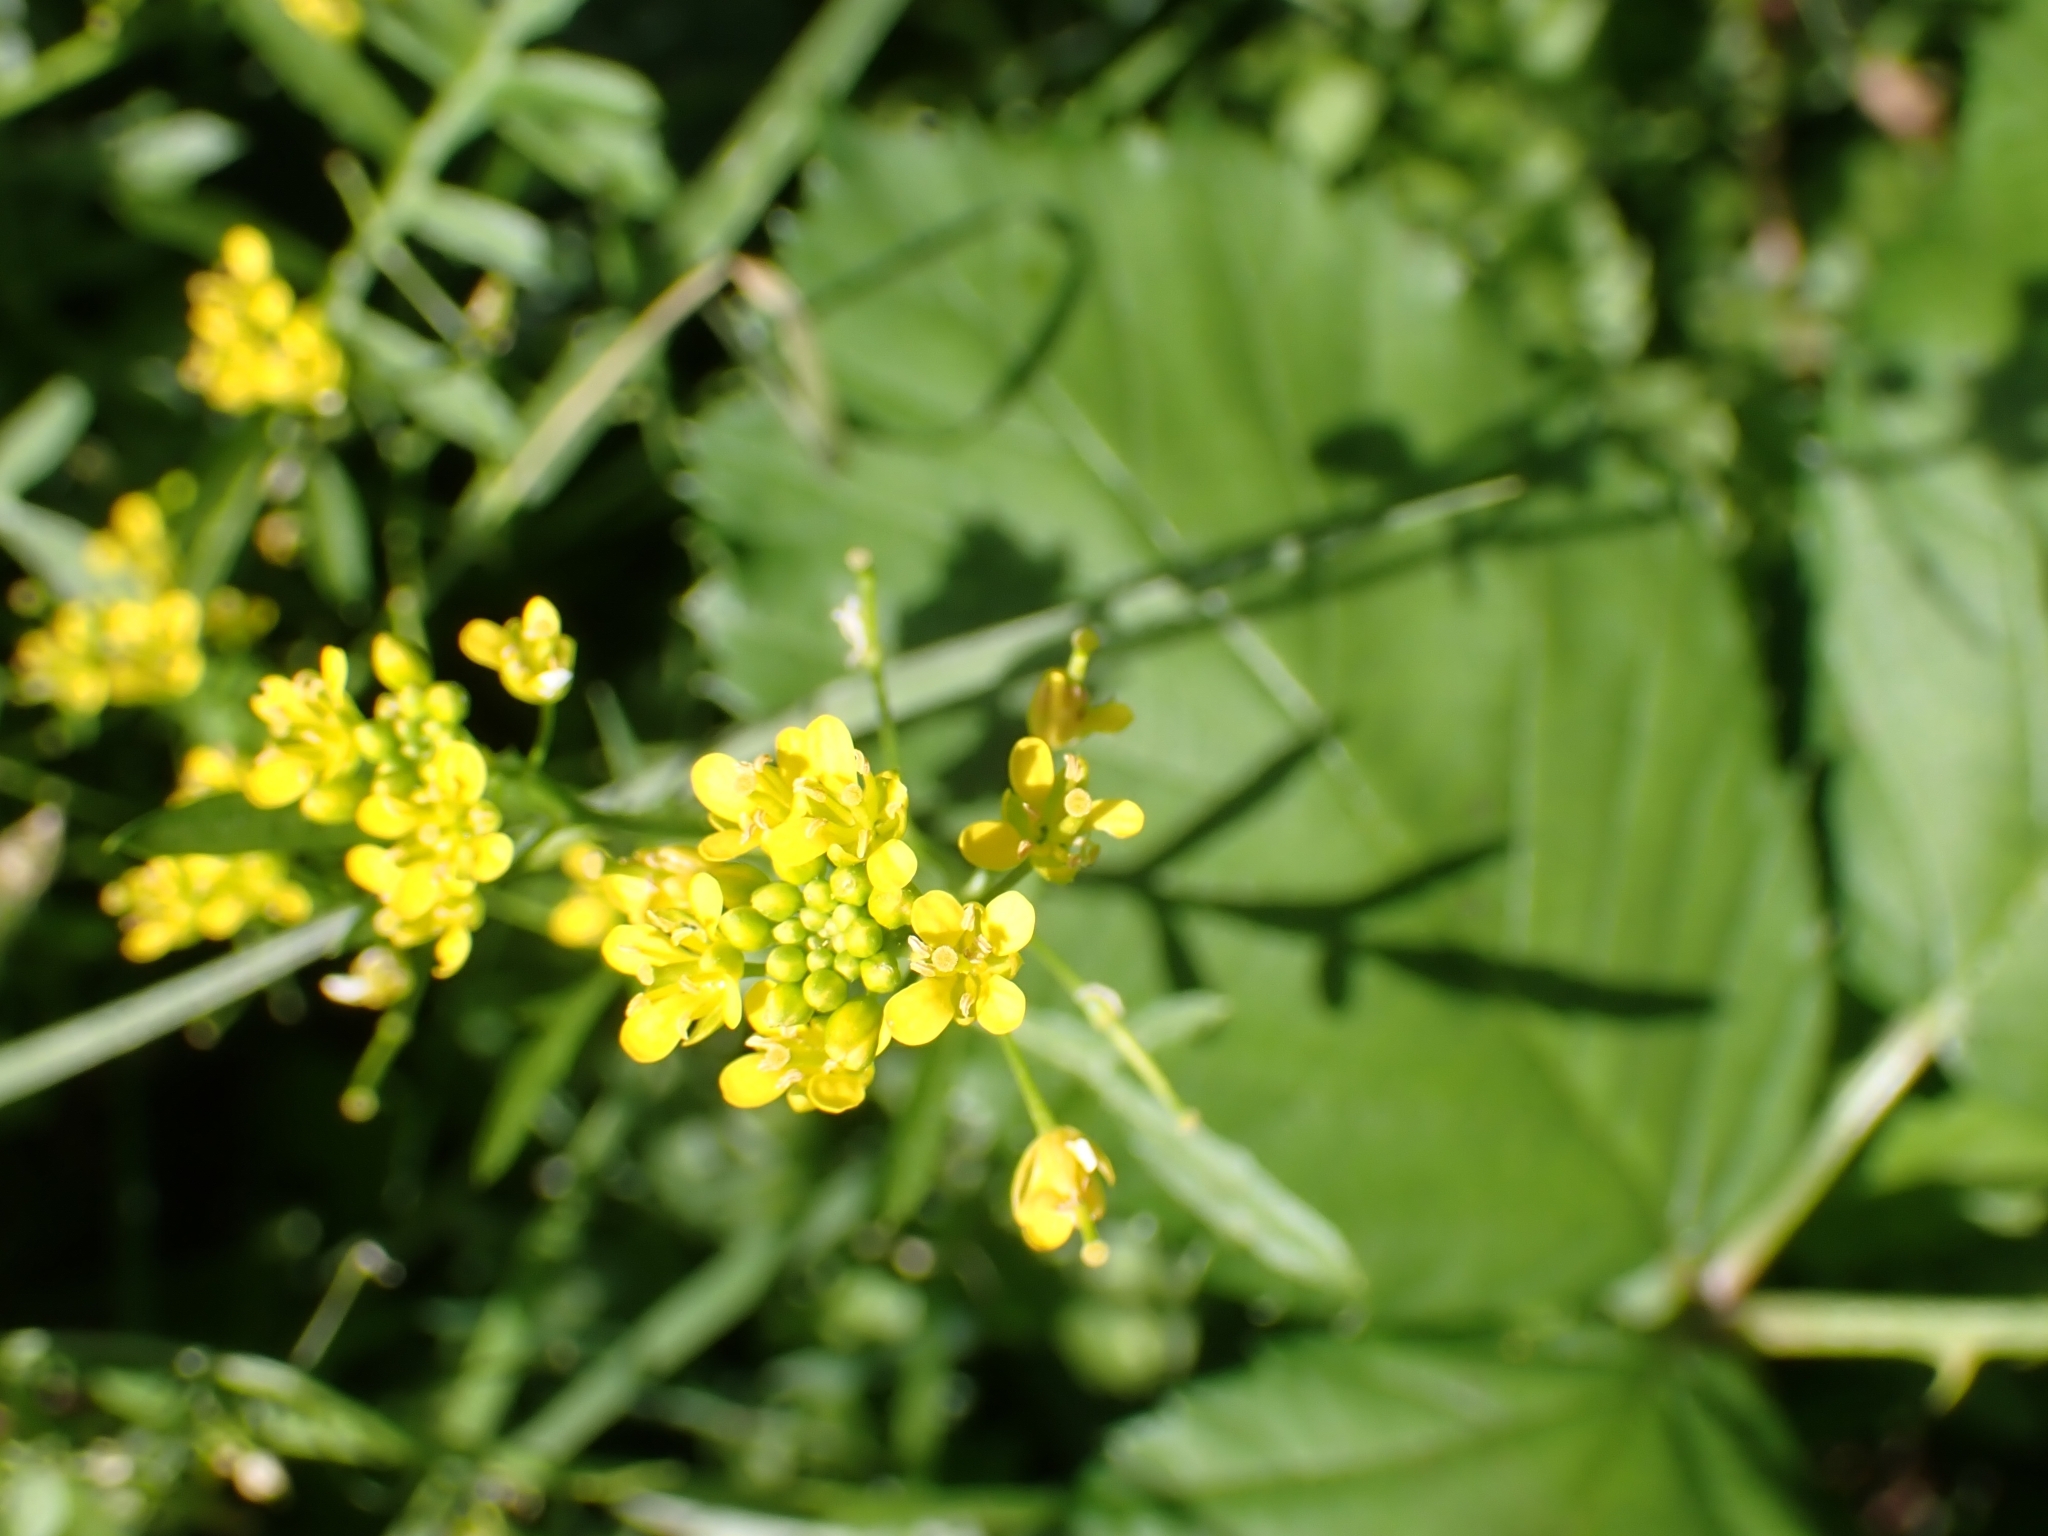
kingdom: Plantae
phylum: Tracheophyta
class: Magnoliopsida
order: Brassicales
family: Brassicaceae
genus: Rorippa
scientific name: Rorippa sylvestris
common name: Creeping yellowcress
